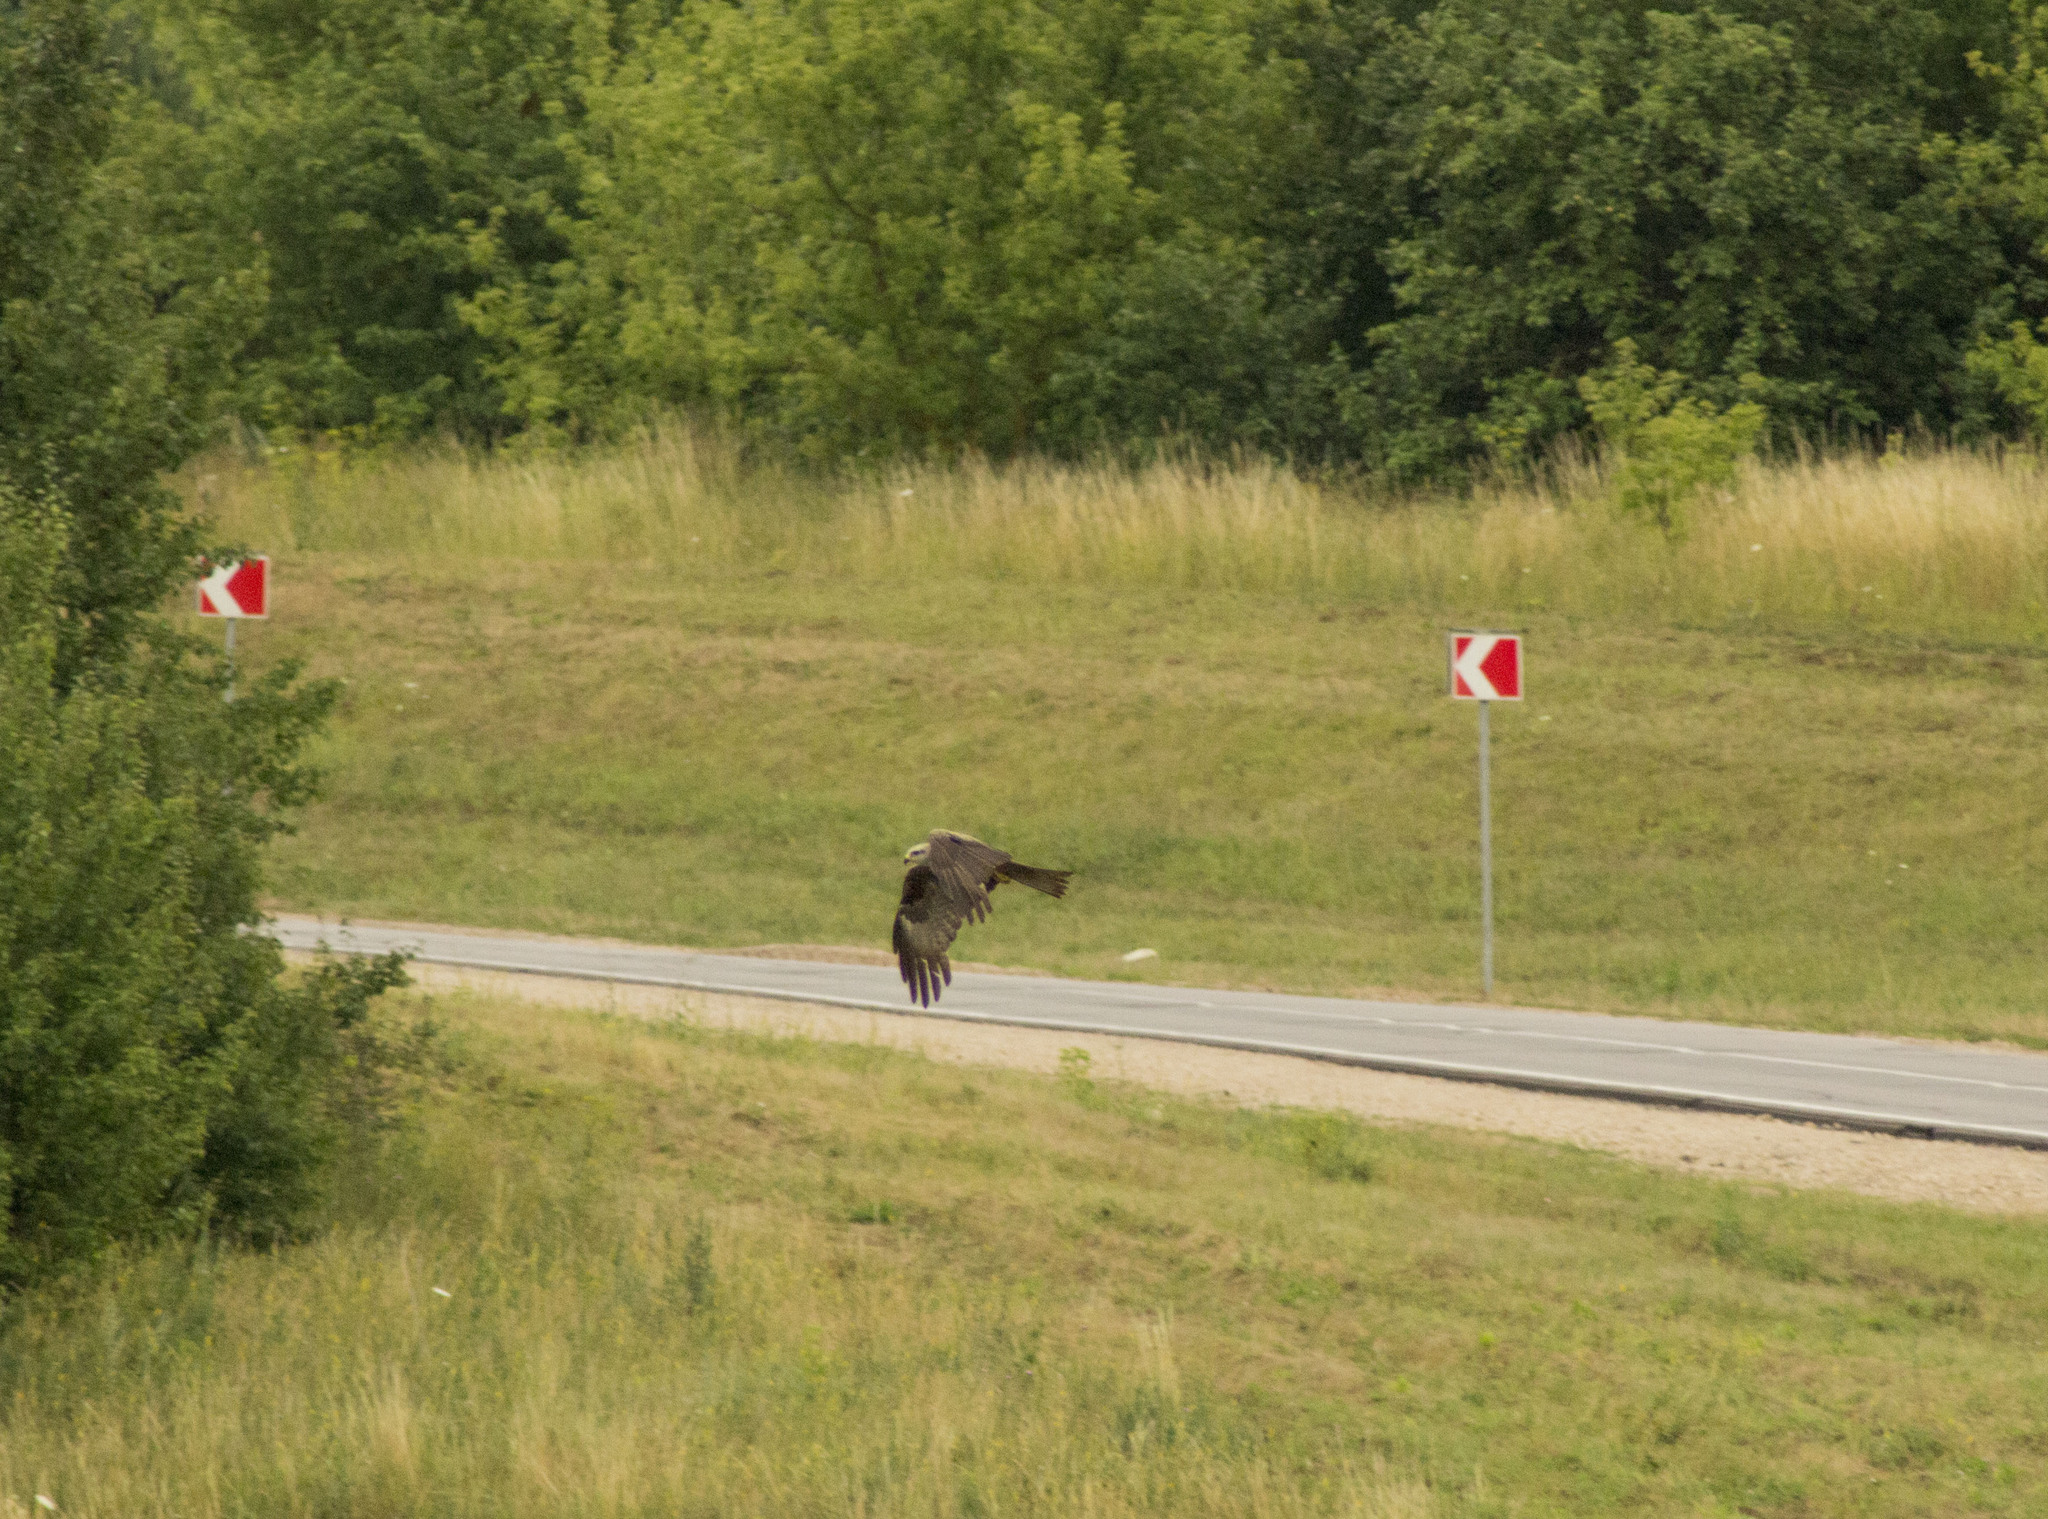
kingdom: Animalia
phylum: Chordata
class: Aves
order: Accipitriformes
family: Accipitridae
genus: Milvus
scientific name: Milvus migrans
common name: Black kite
